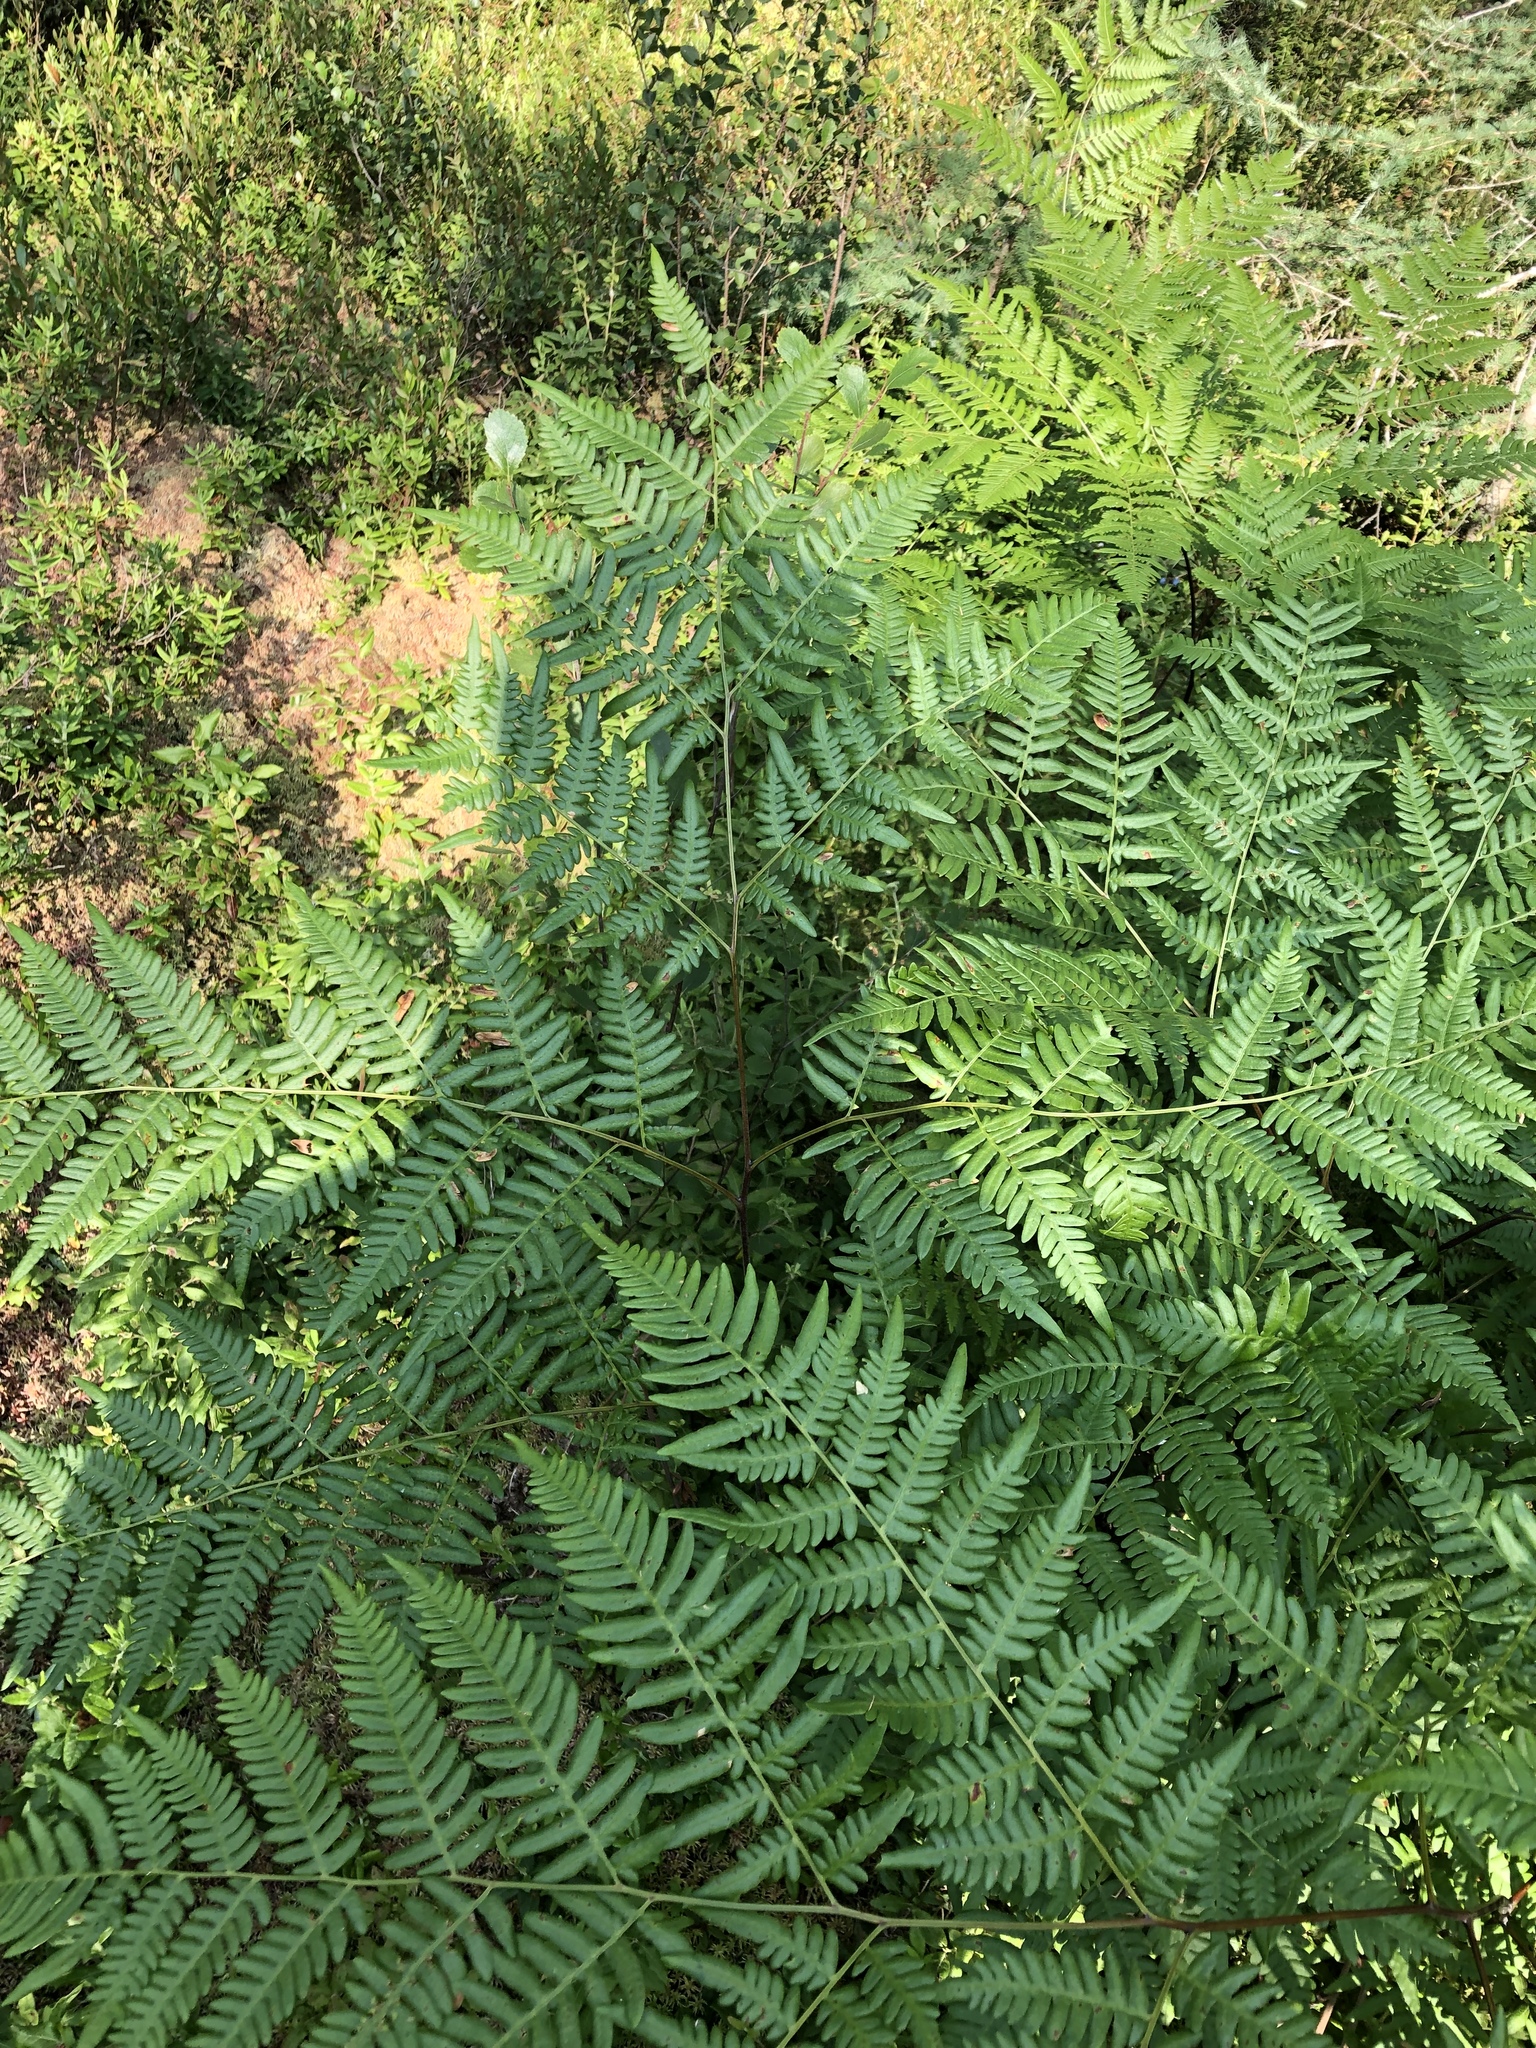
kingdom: Plantae
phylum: Tracheophyta
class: Polypodiopsida
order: Polypodiales
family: Dennstaedtiaceae
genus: Pteridium
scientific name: Pteridium aquilinum
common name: Bracken
